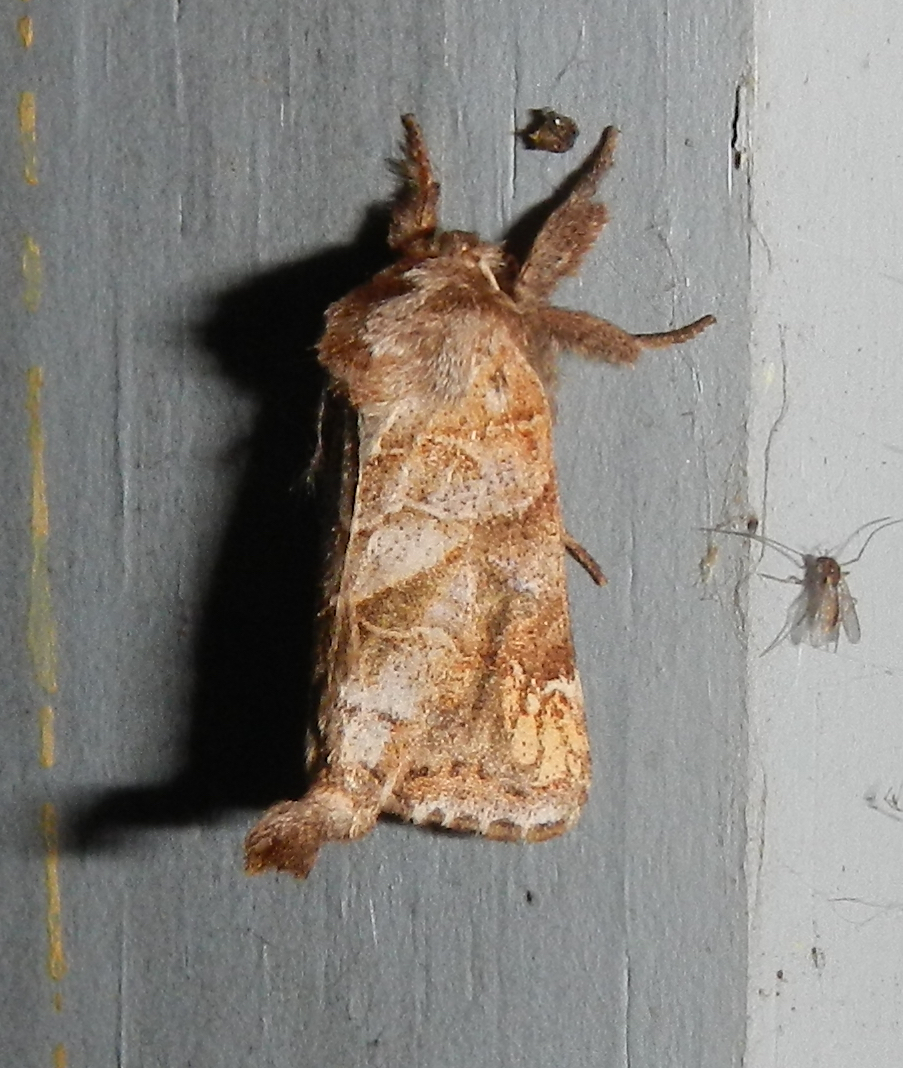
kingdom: Animalia
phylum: Arthropoda
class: Insecta
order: Lepidoptera
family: Notodontidae
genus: Clostera
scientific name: Clostera strigosa
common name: Striped chocolate-tip moth
